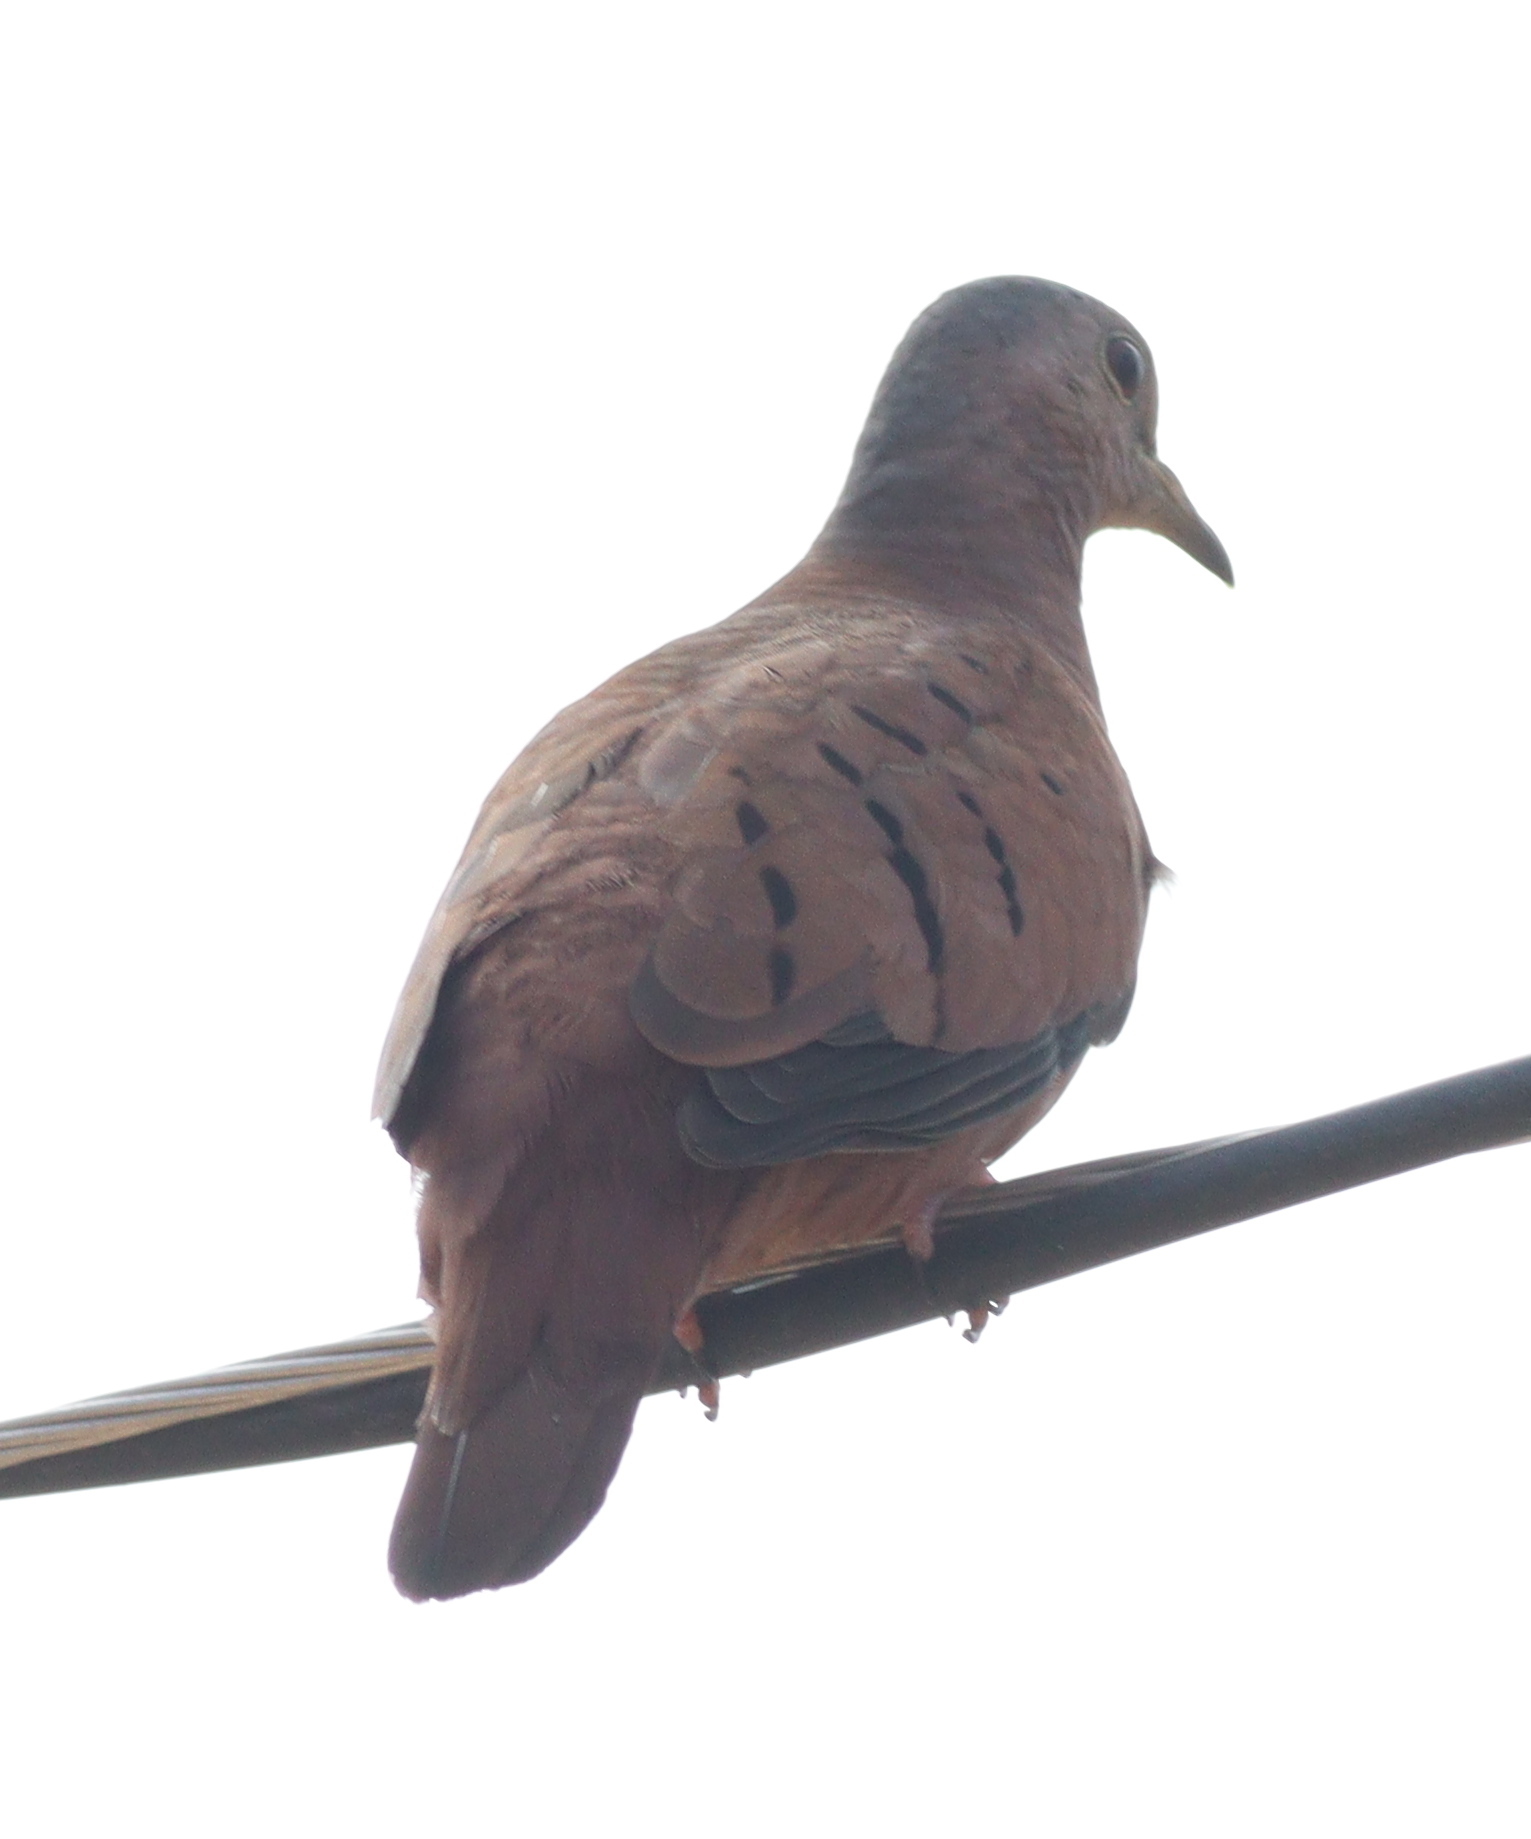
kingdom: Animalia
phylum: Chordata
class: Aves
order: Columbiformes
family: Columbidae
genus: Columbina
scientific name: Columbina talpacoti
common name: Ruddy ground dove
